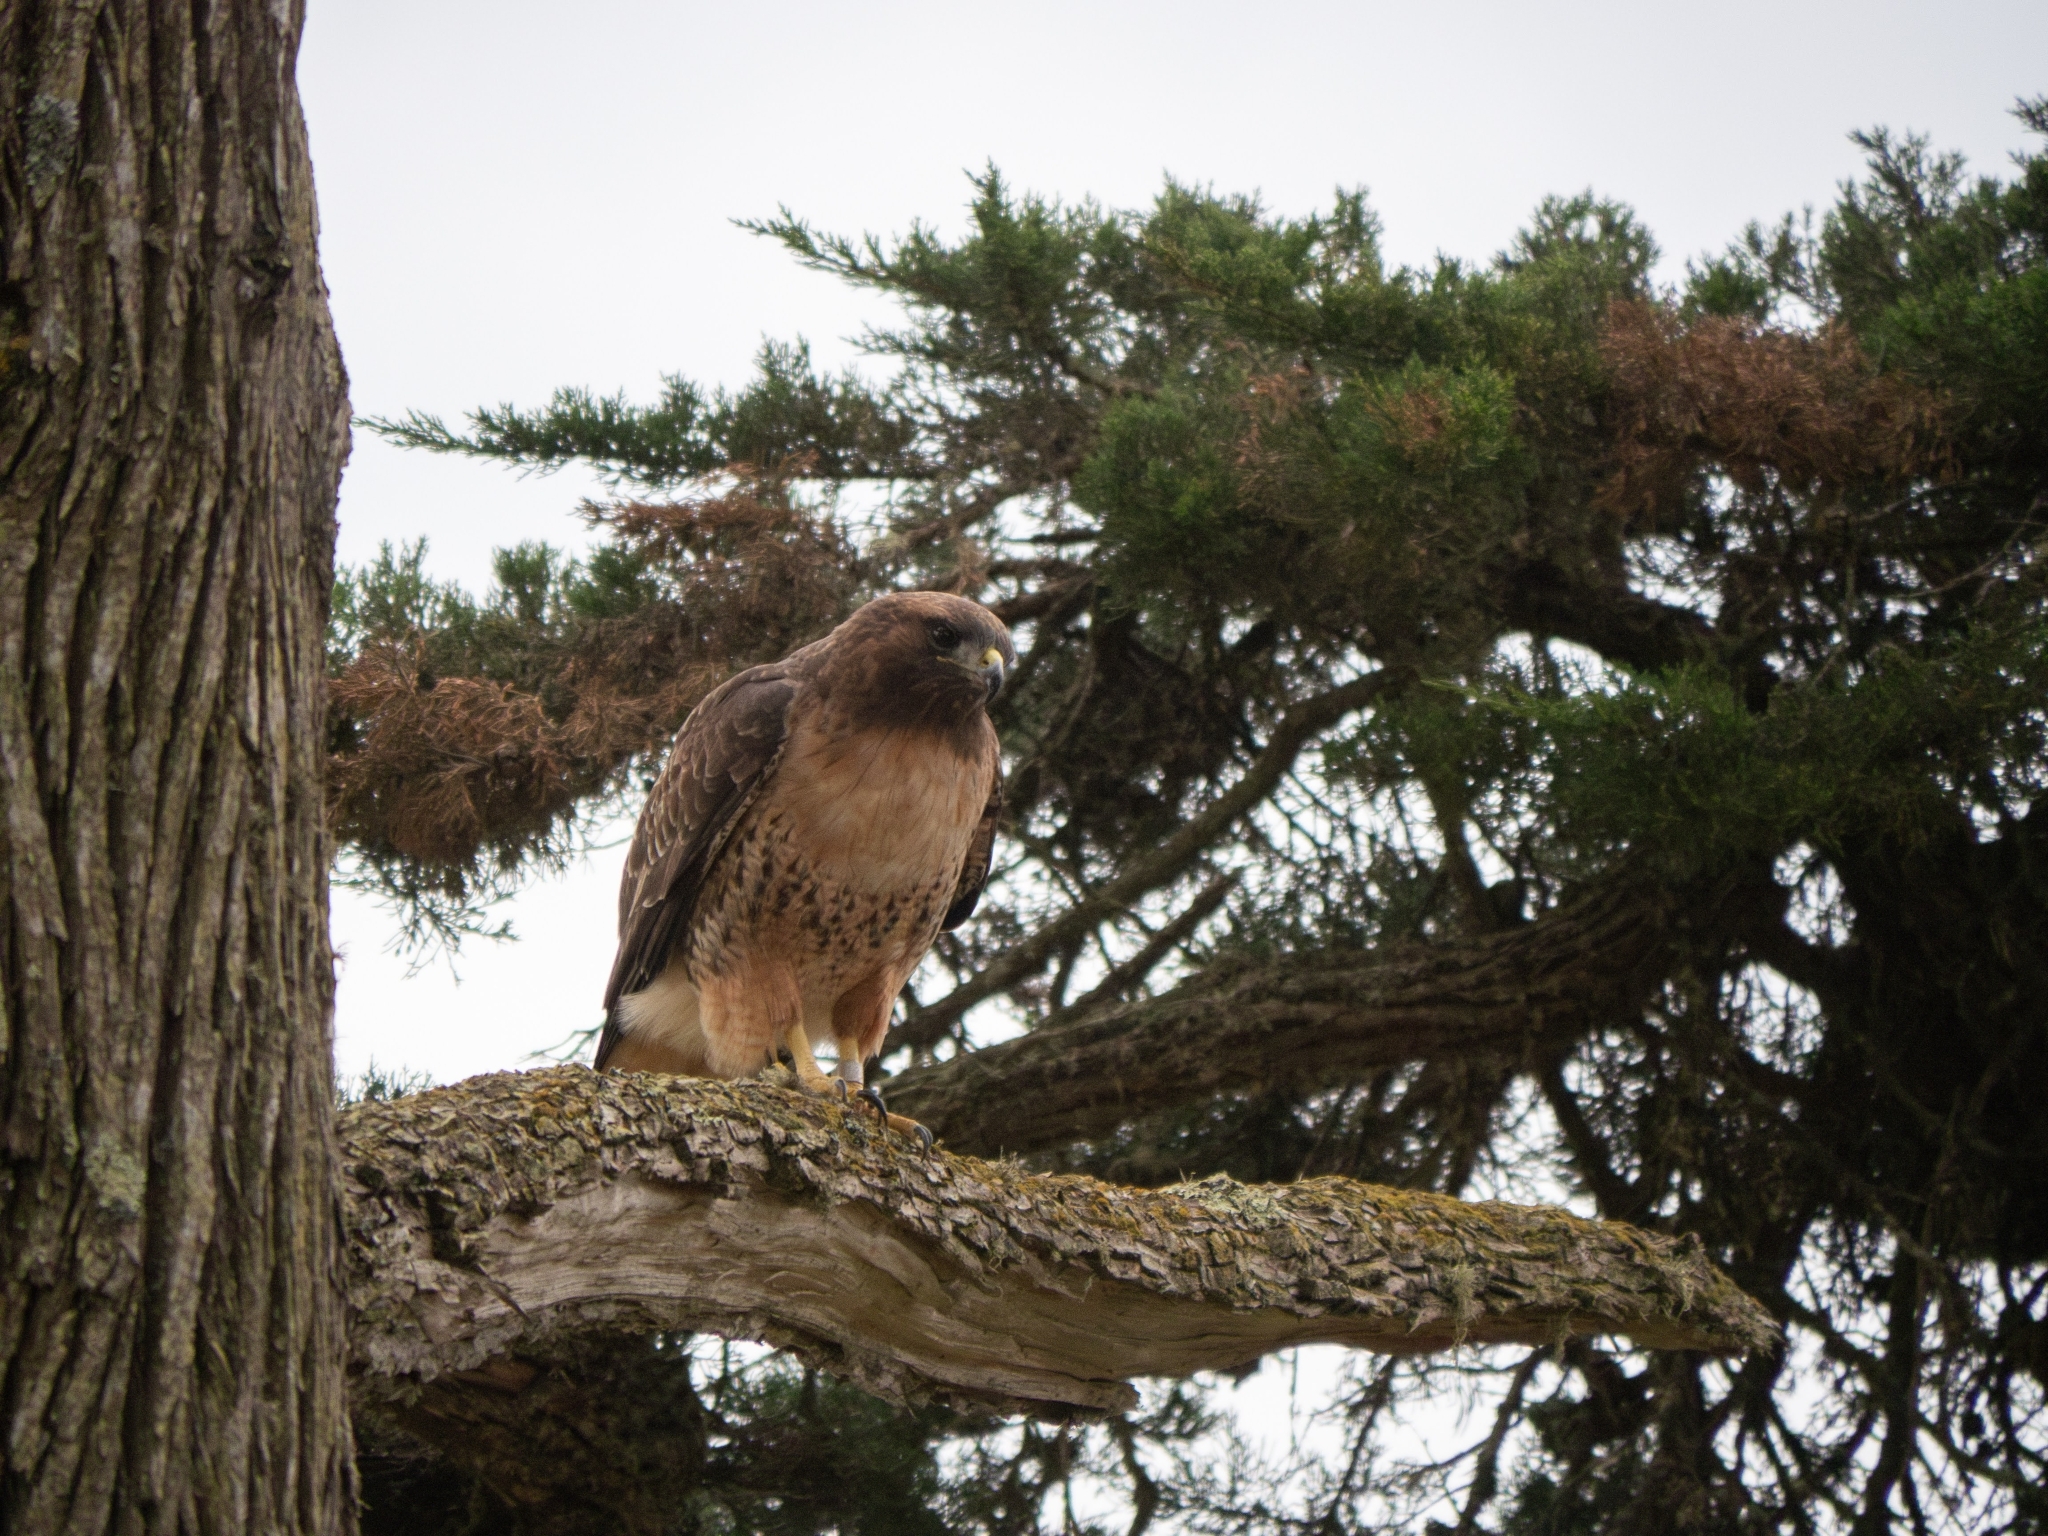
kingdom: Animalia
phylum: Chordata
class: Aves
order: Accipitriformes
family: Accipitridae
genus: Buteo
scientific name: Buteo jamaicensis
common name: Red-tailed hawk
